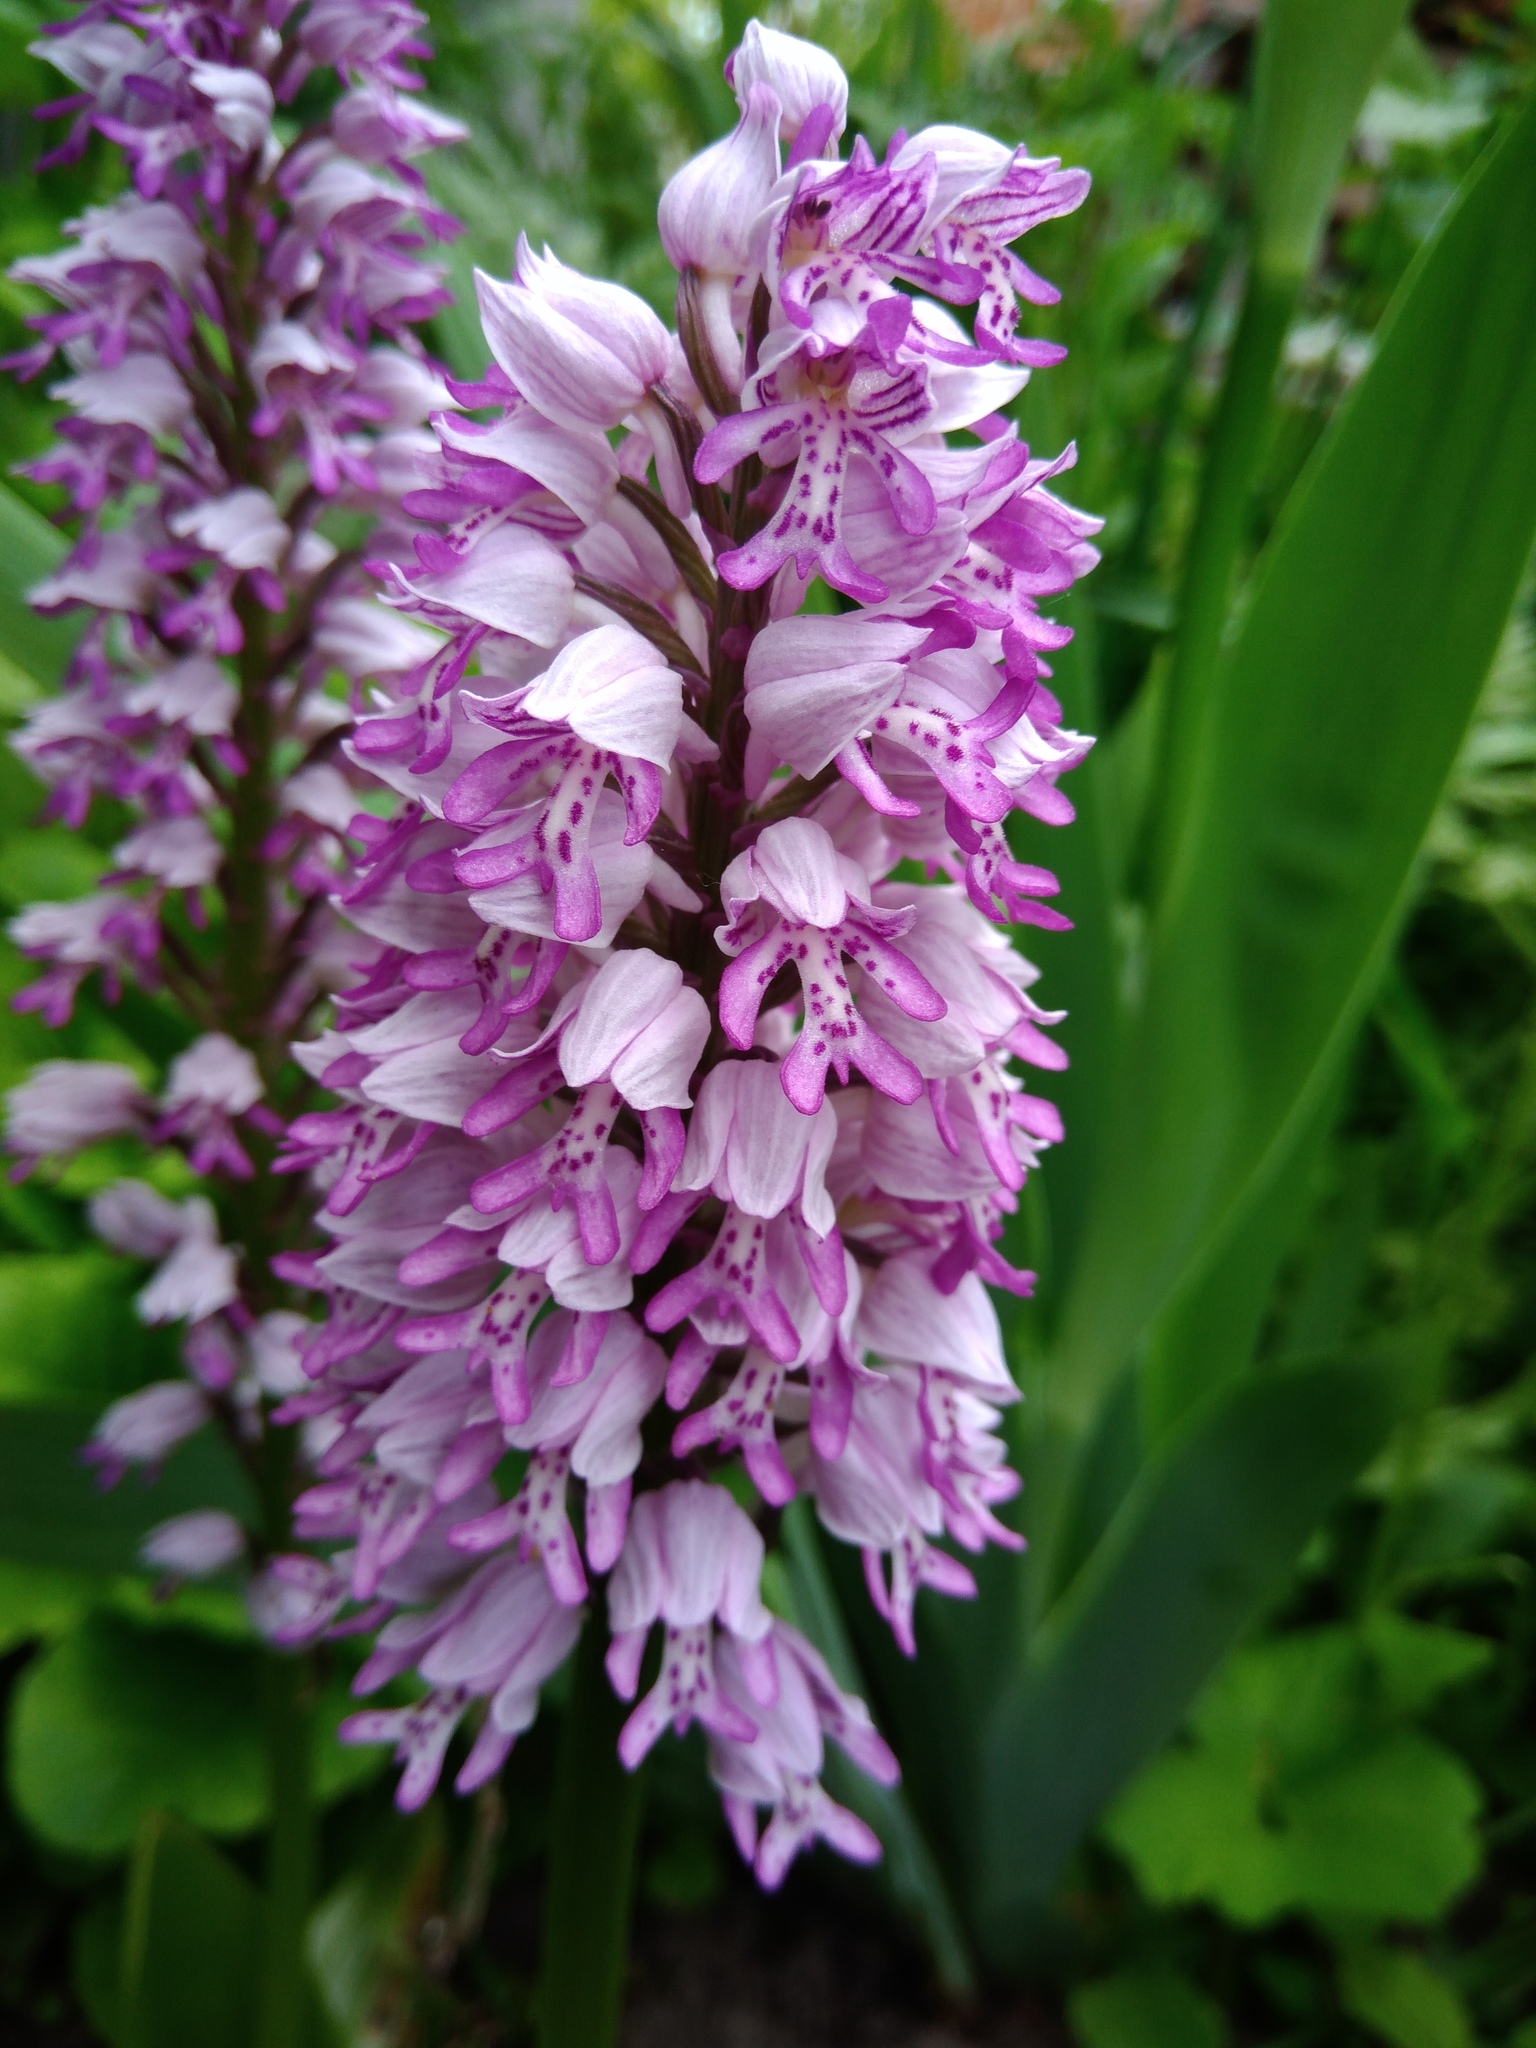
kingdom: Plantae
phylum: Tracheophyta
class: Liliopsida
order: Asparagales
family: Orchidaceae
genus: Orchis
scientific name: Orchis militaris
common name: Military orchid
